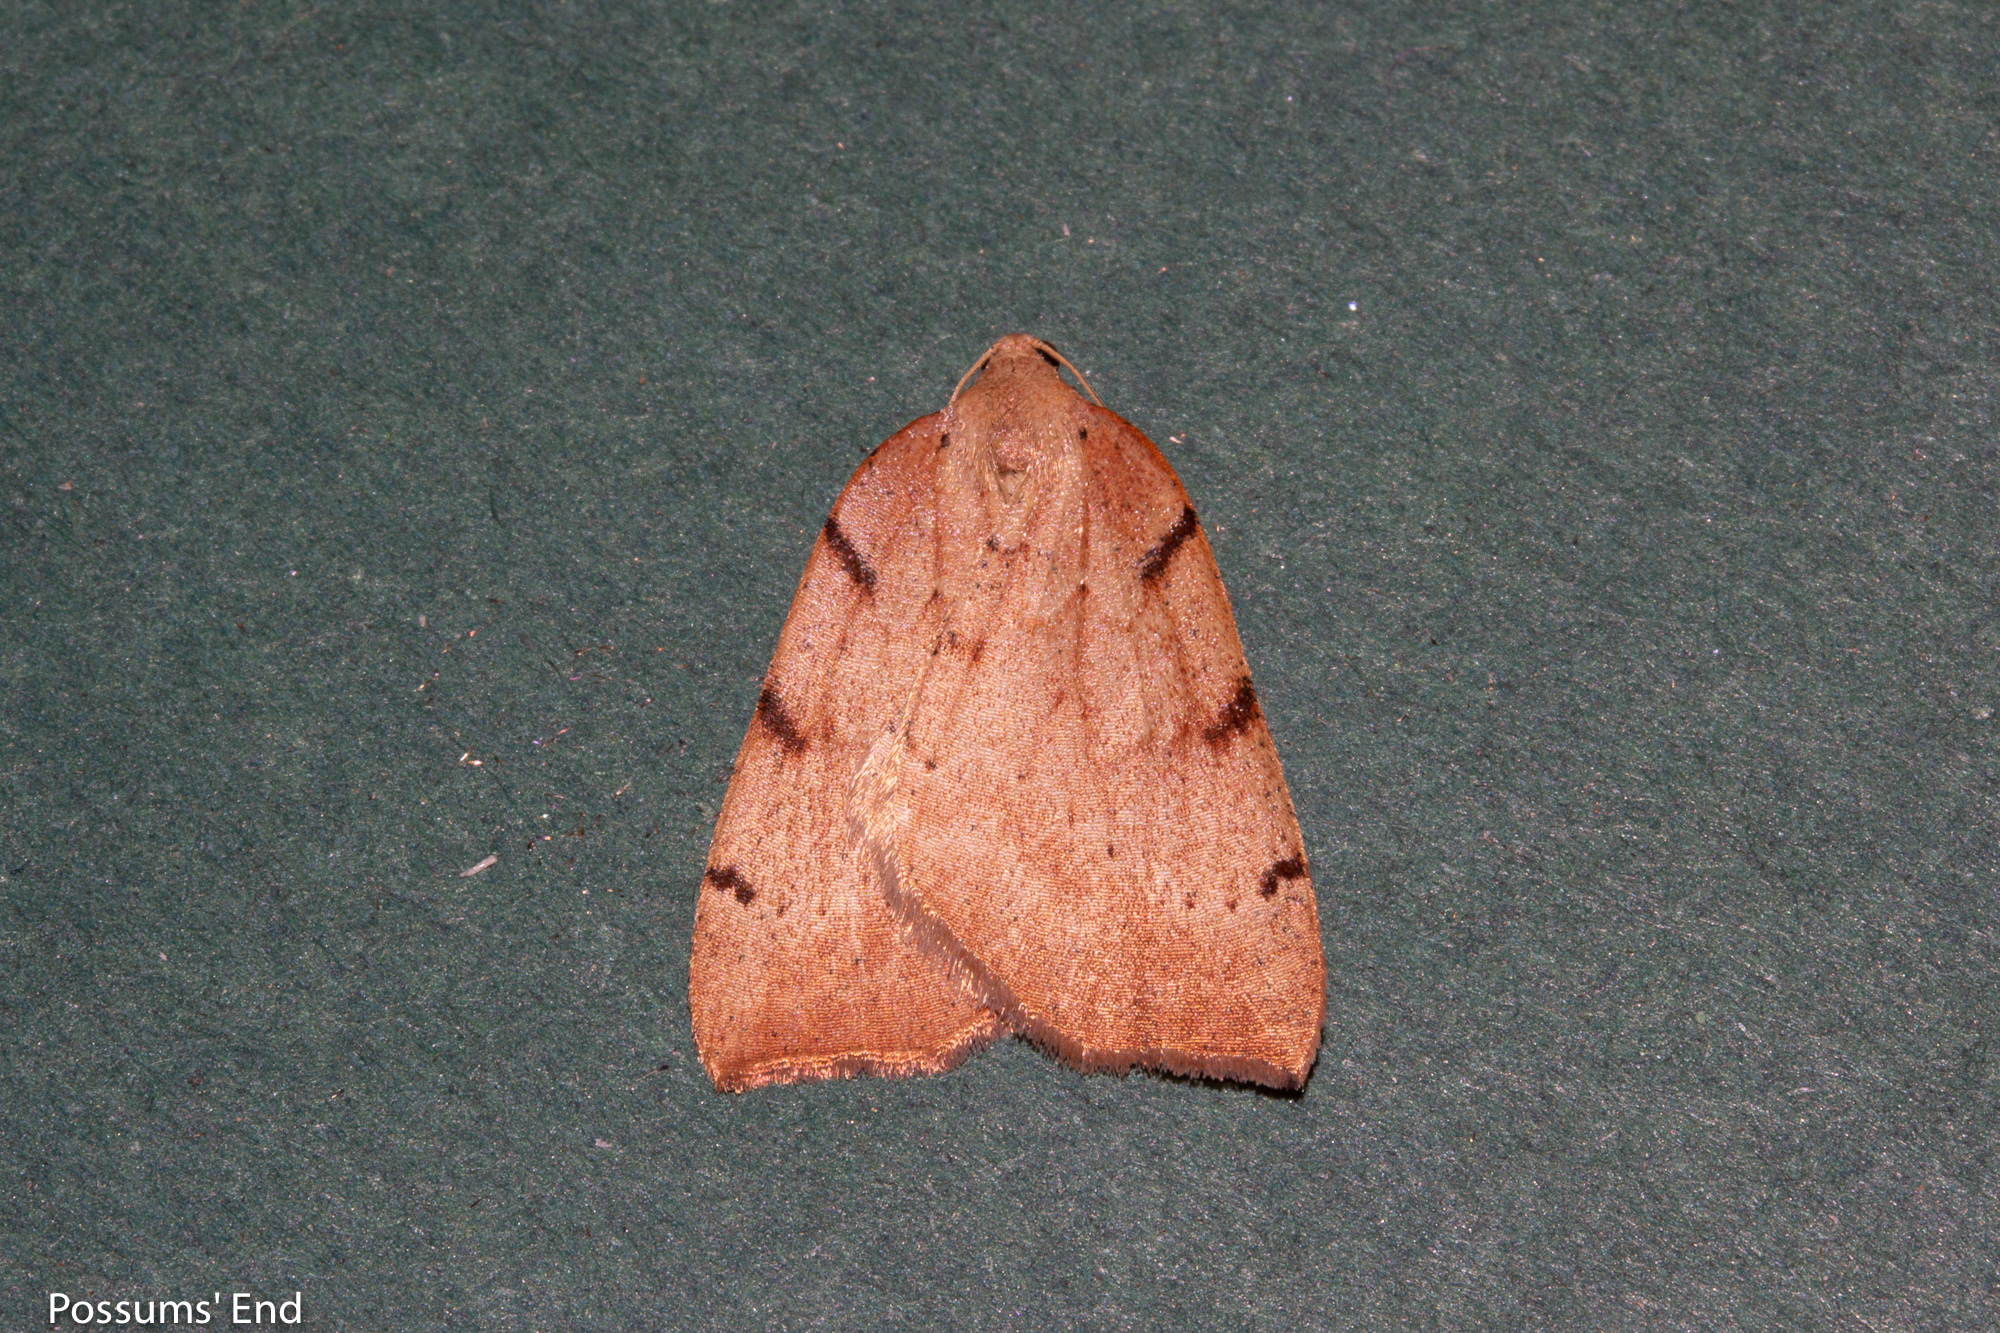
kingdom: Animalia
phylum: Arthropoda
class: Insecta
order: Lepidoptera
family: Geometridae
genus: Sestra
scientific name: Sestra humeraria
